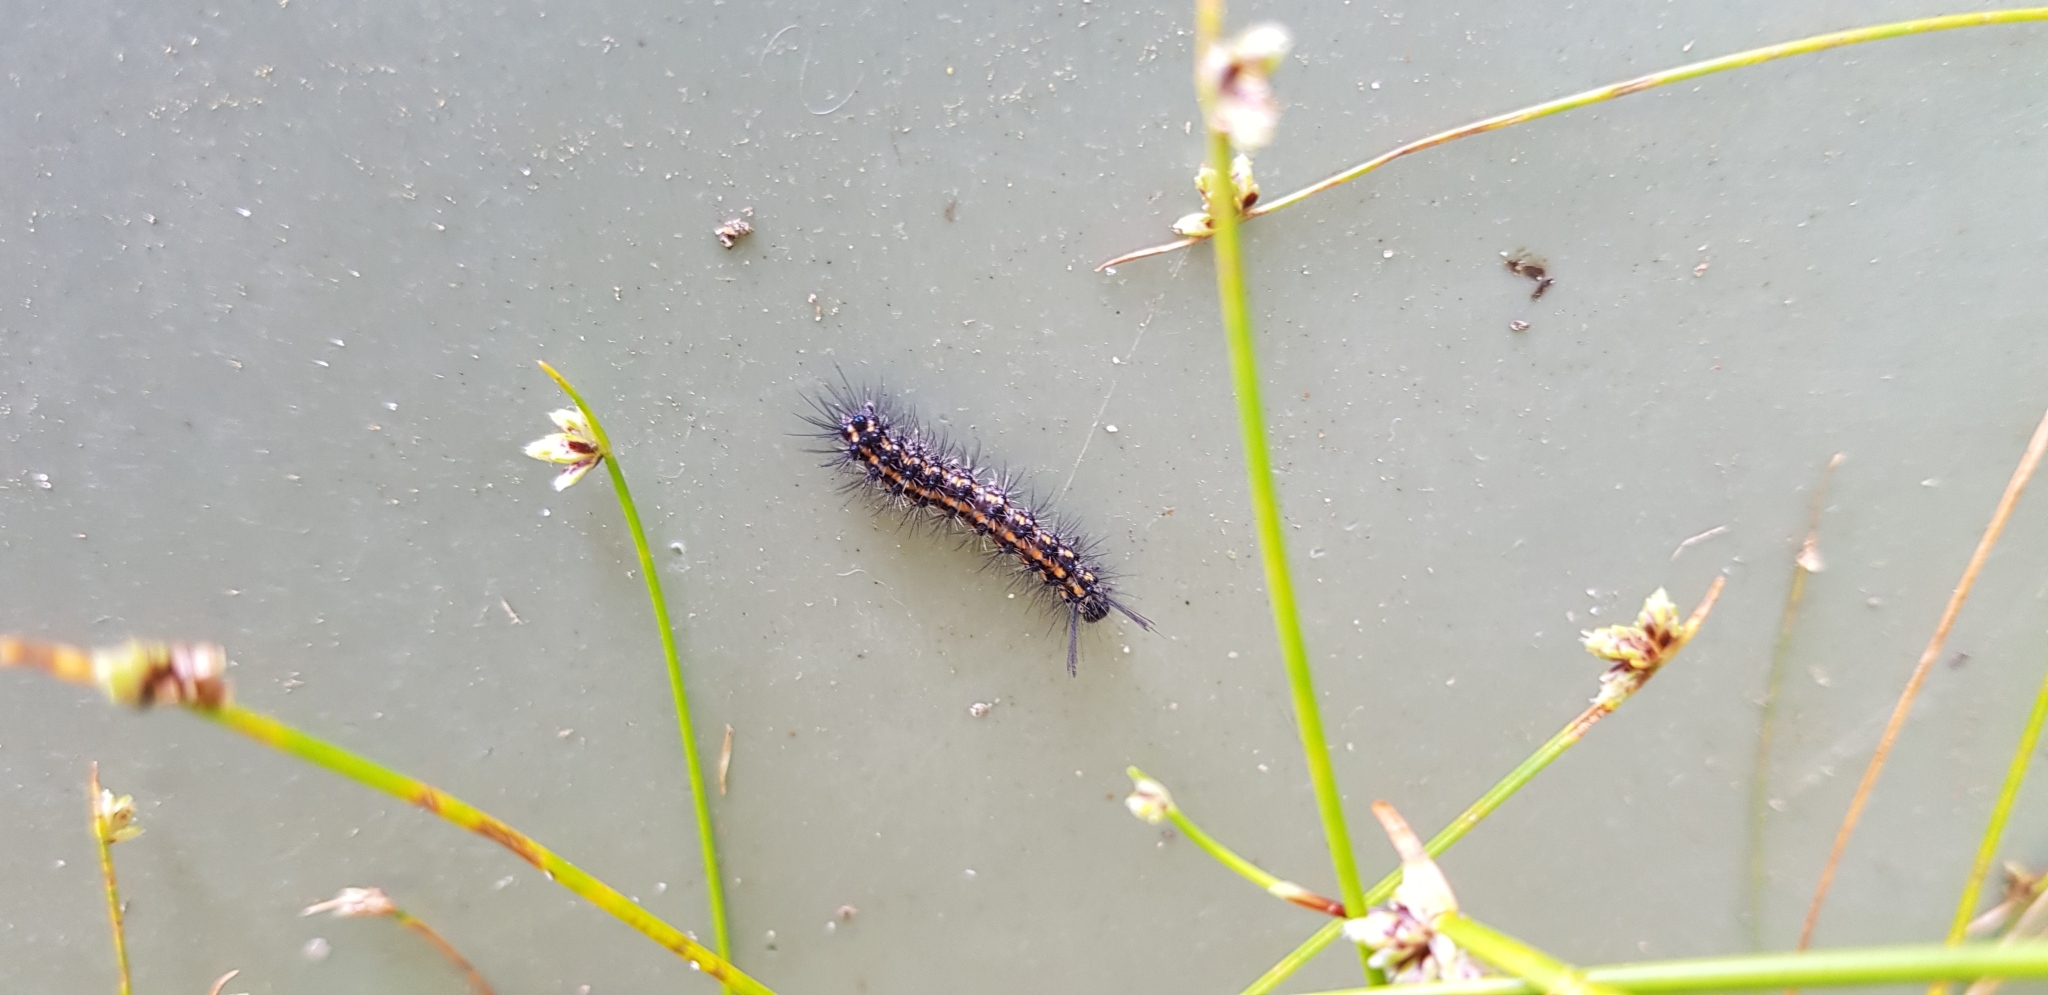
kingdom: Animalia
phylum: Arthropoda
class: Insecta
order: Lepidoptera
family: Erebidae
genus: Nyctemera
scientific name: Nyctemera amicus
